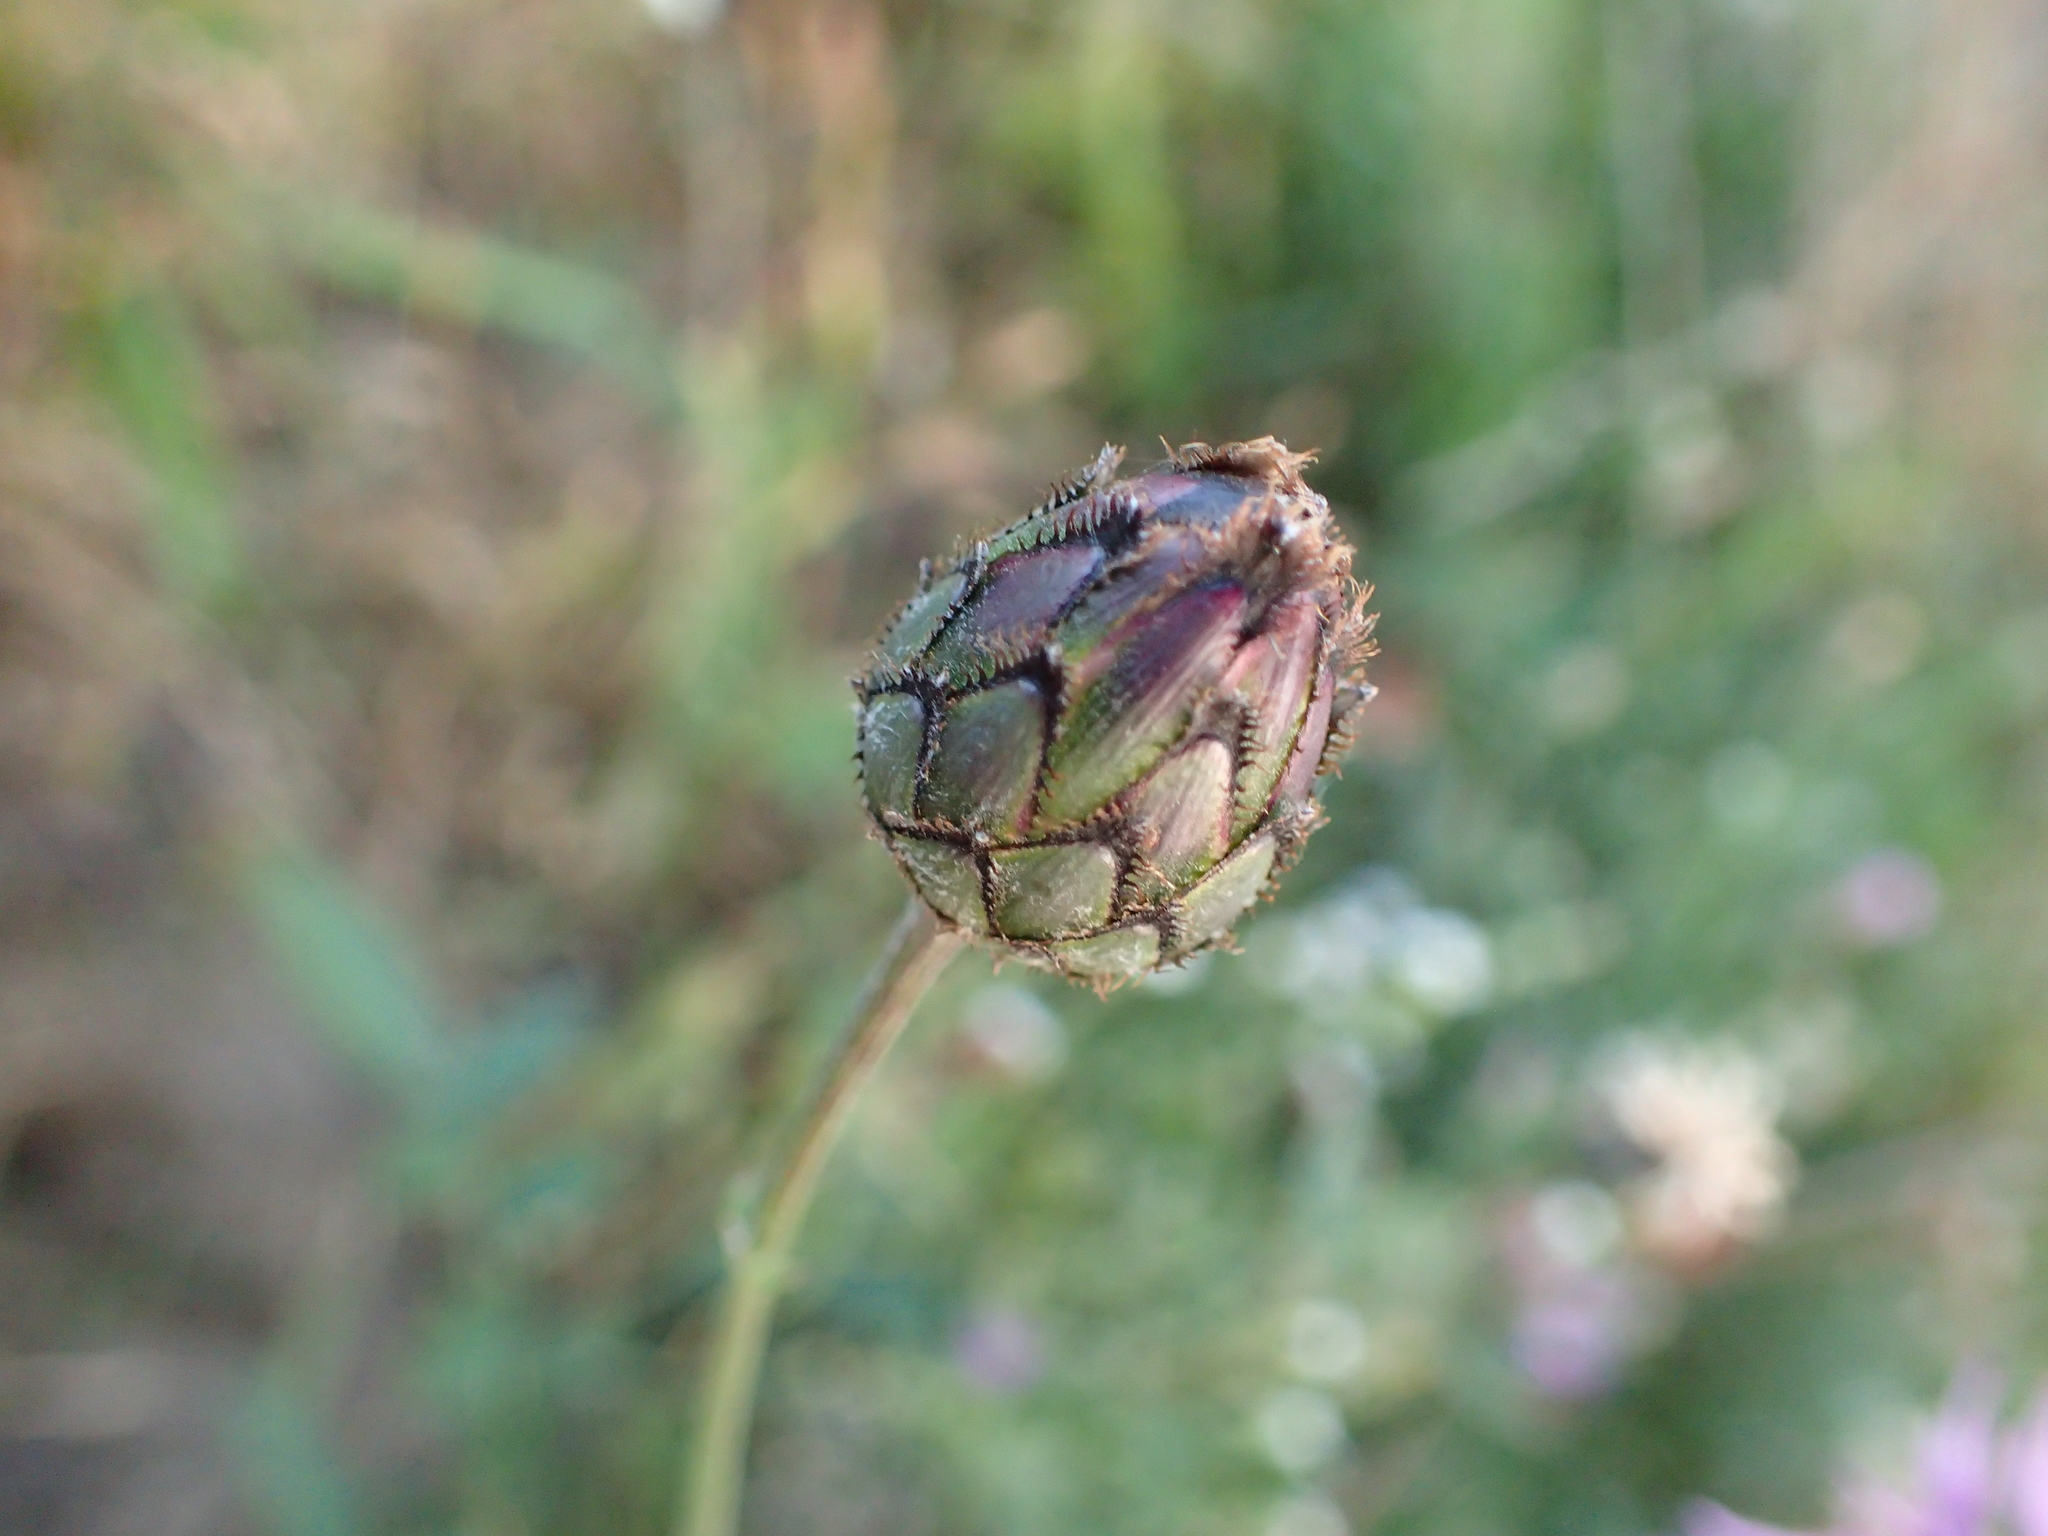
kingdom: Plantae
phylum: Tracheophyta
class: Magnoliopsida
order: Asterales
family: Asteraceae
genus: Centaurea
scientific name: Centaurea scabiosa
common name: Greater knapweed
